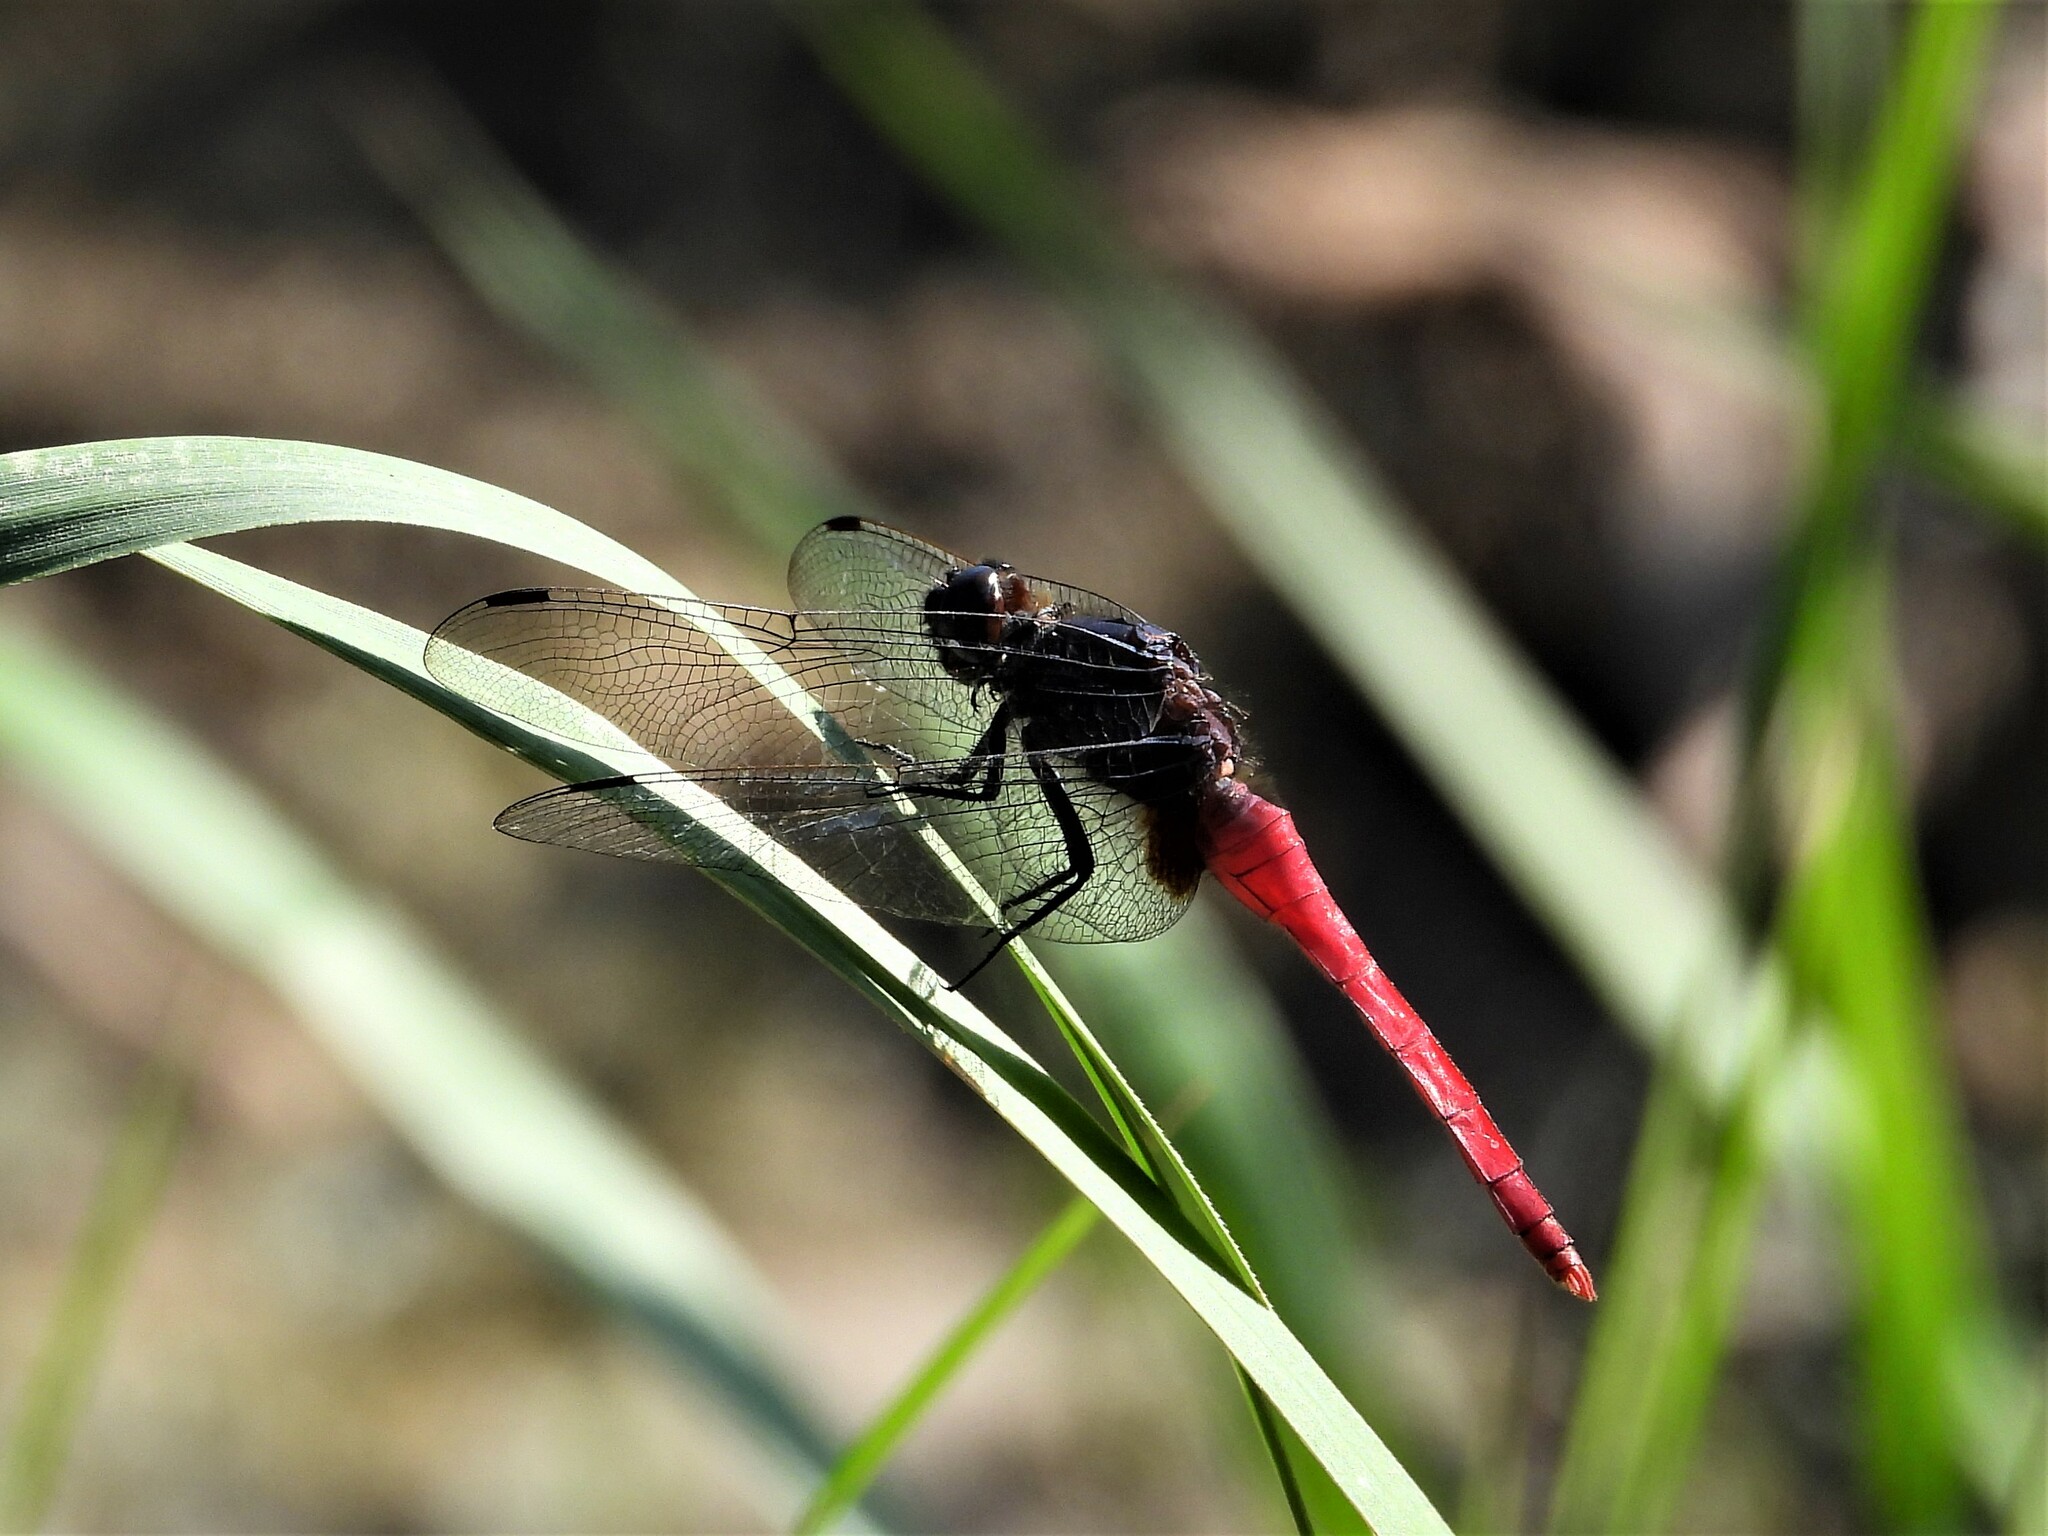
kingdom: Animalia
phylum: Arthropoda
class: Insecta
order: Odonata
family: Libellulidae
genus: Orthetrum
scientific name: Orthetrum pruinosum
